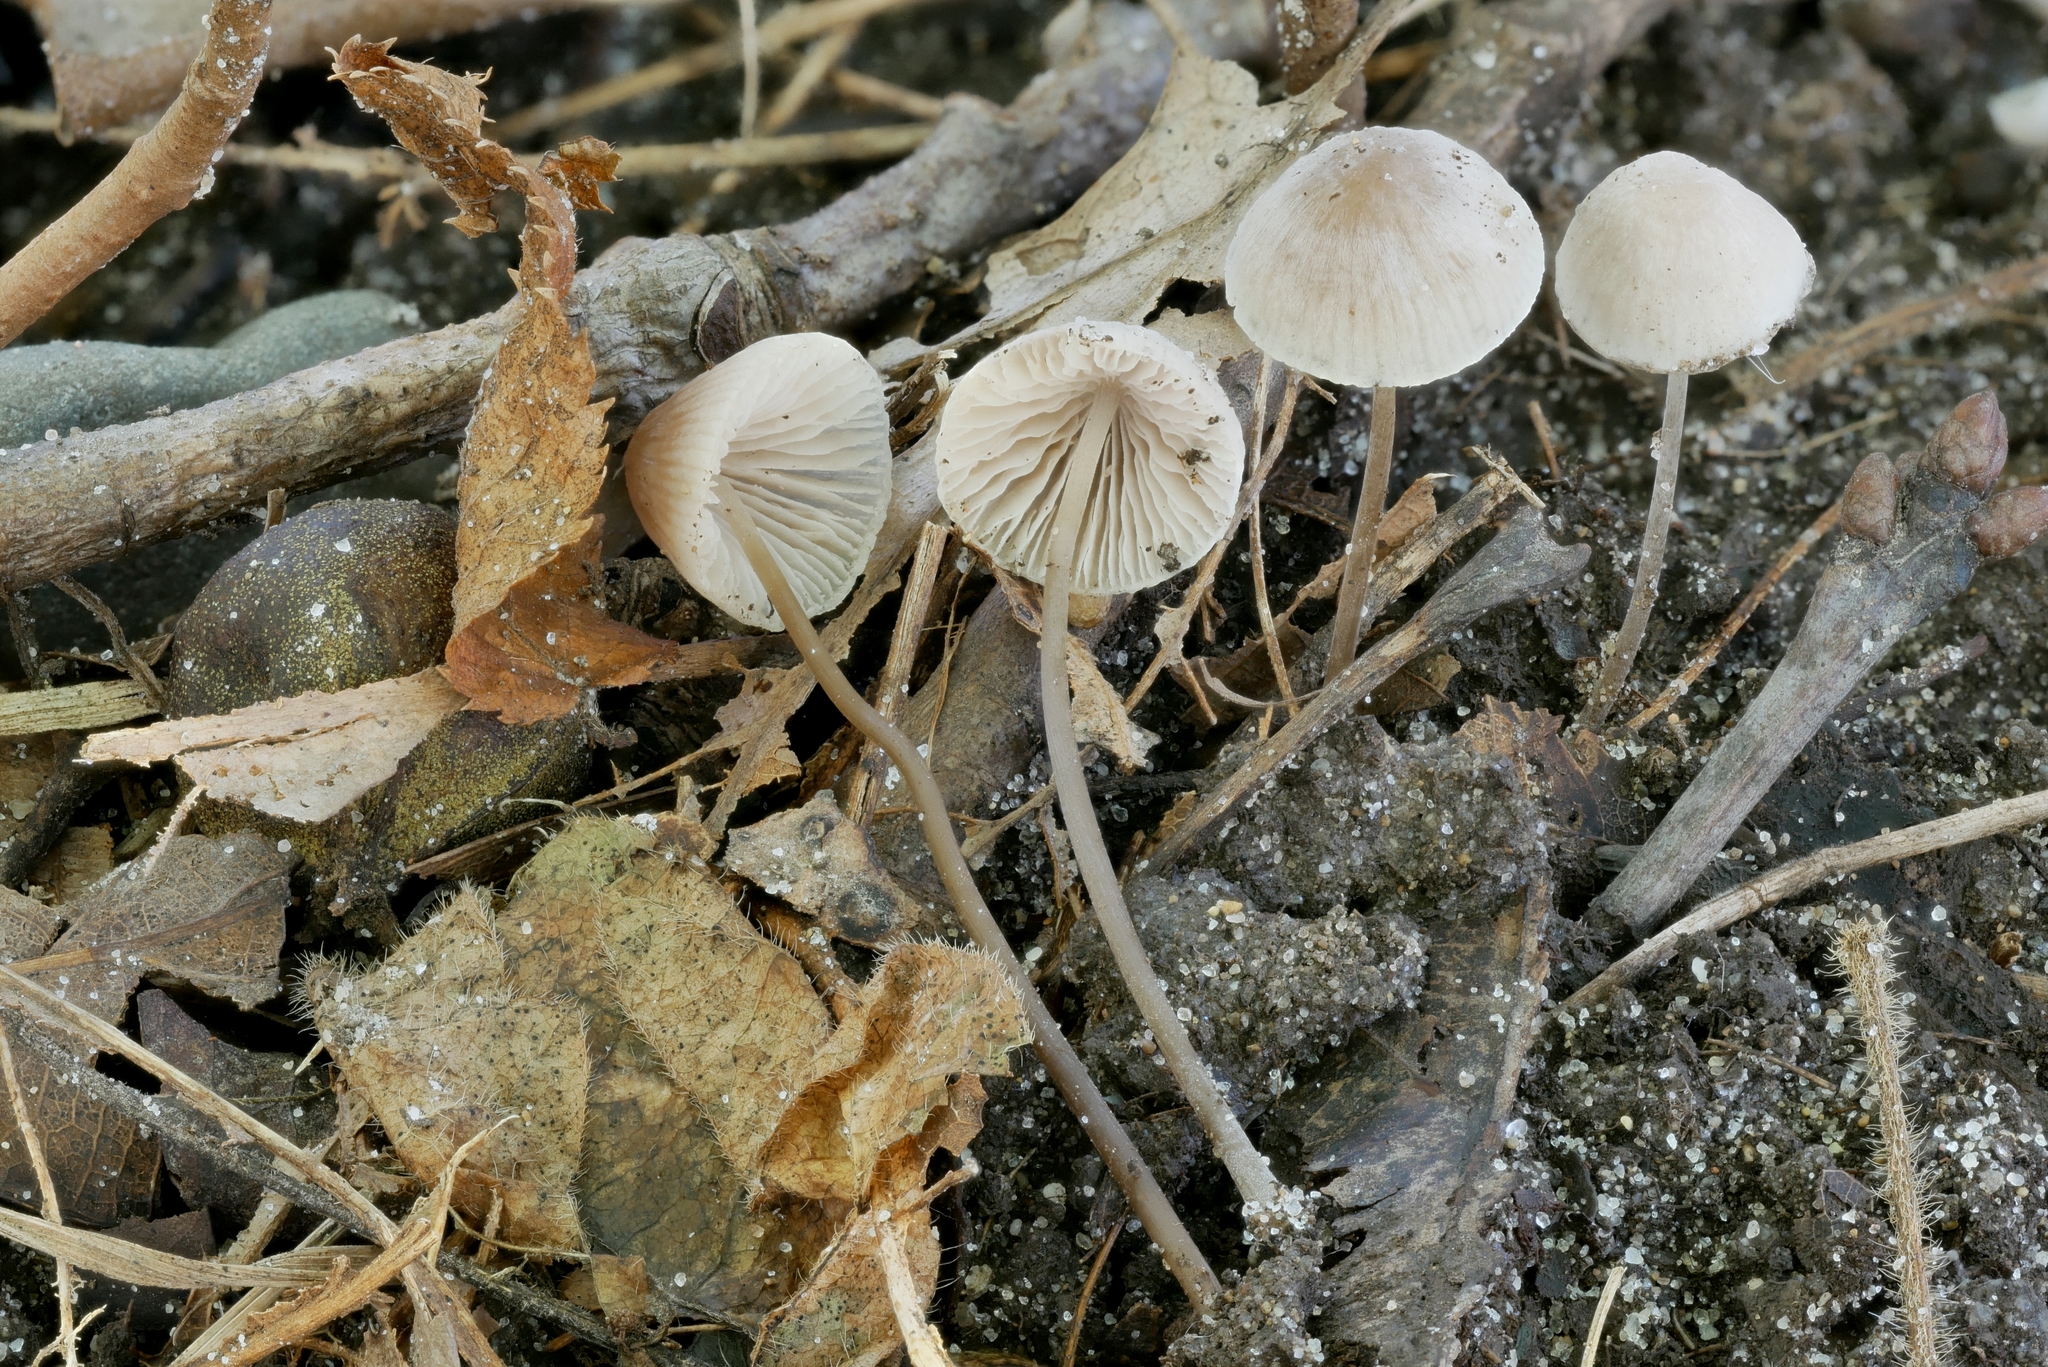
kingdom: Fungi
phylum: Basidiomycota
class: Agaricomycetes
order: Agaricales
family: Mycenaceae
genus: Mycena
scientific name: Mycena filopes
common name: Iodine bonnet
